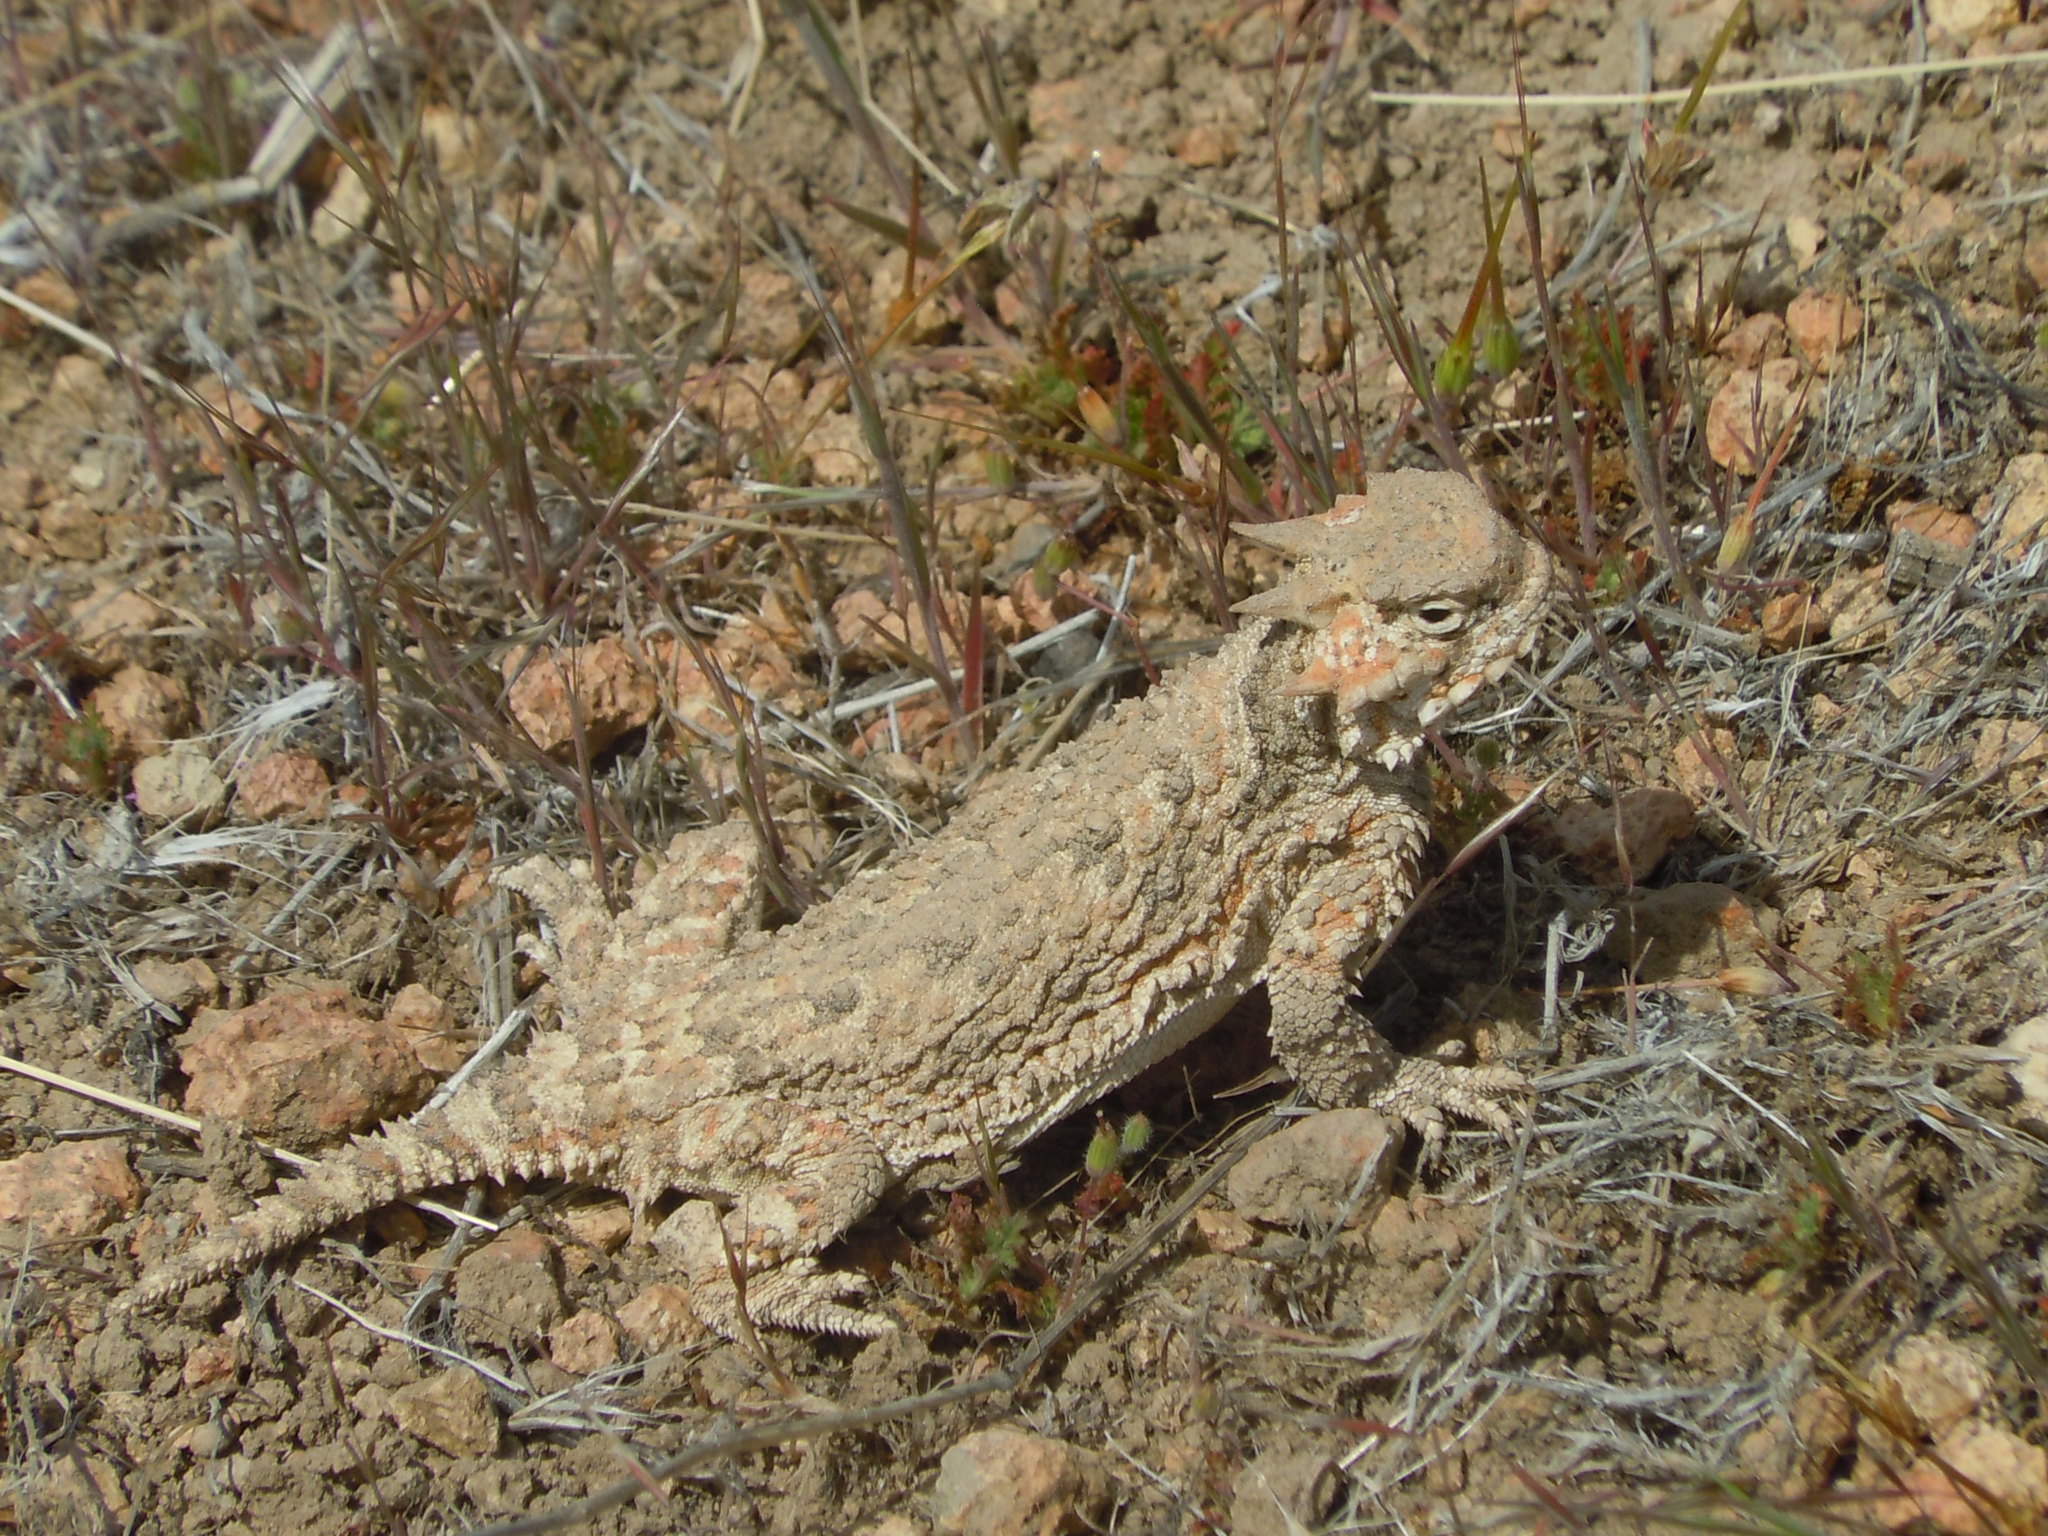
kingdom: Animalia
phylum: Chordata
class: Squamata
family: Phrynosomatidae
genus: Phrynosoma
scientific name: Phrynosoma platyrhinos
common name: Desert horned lizard
